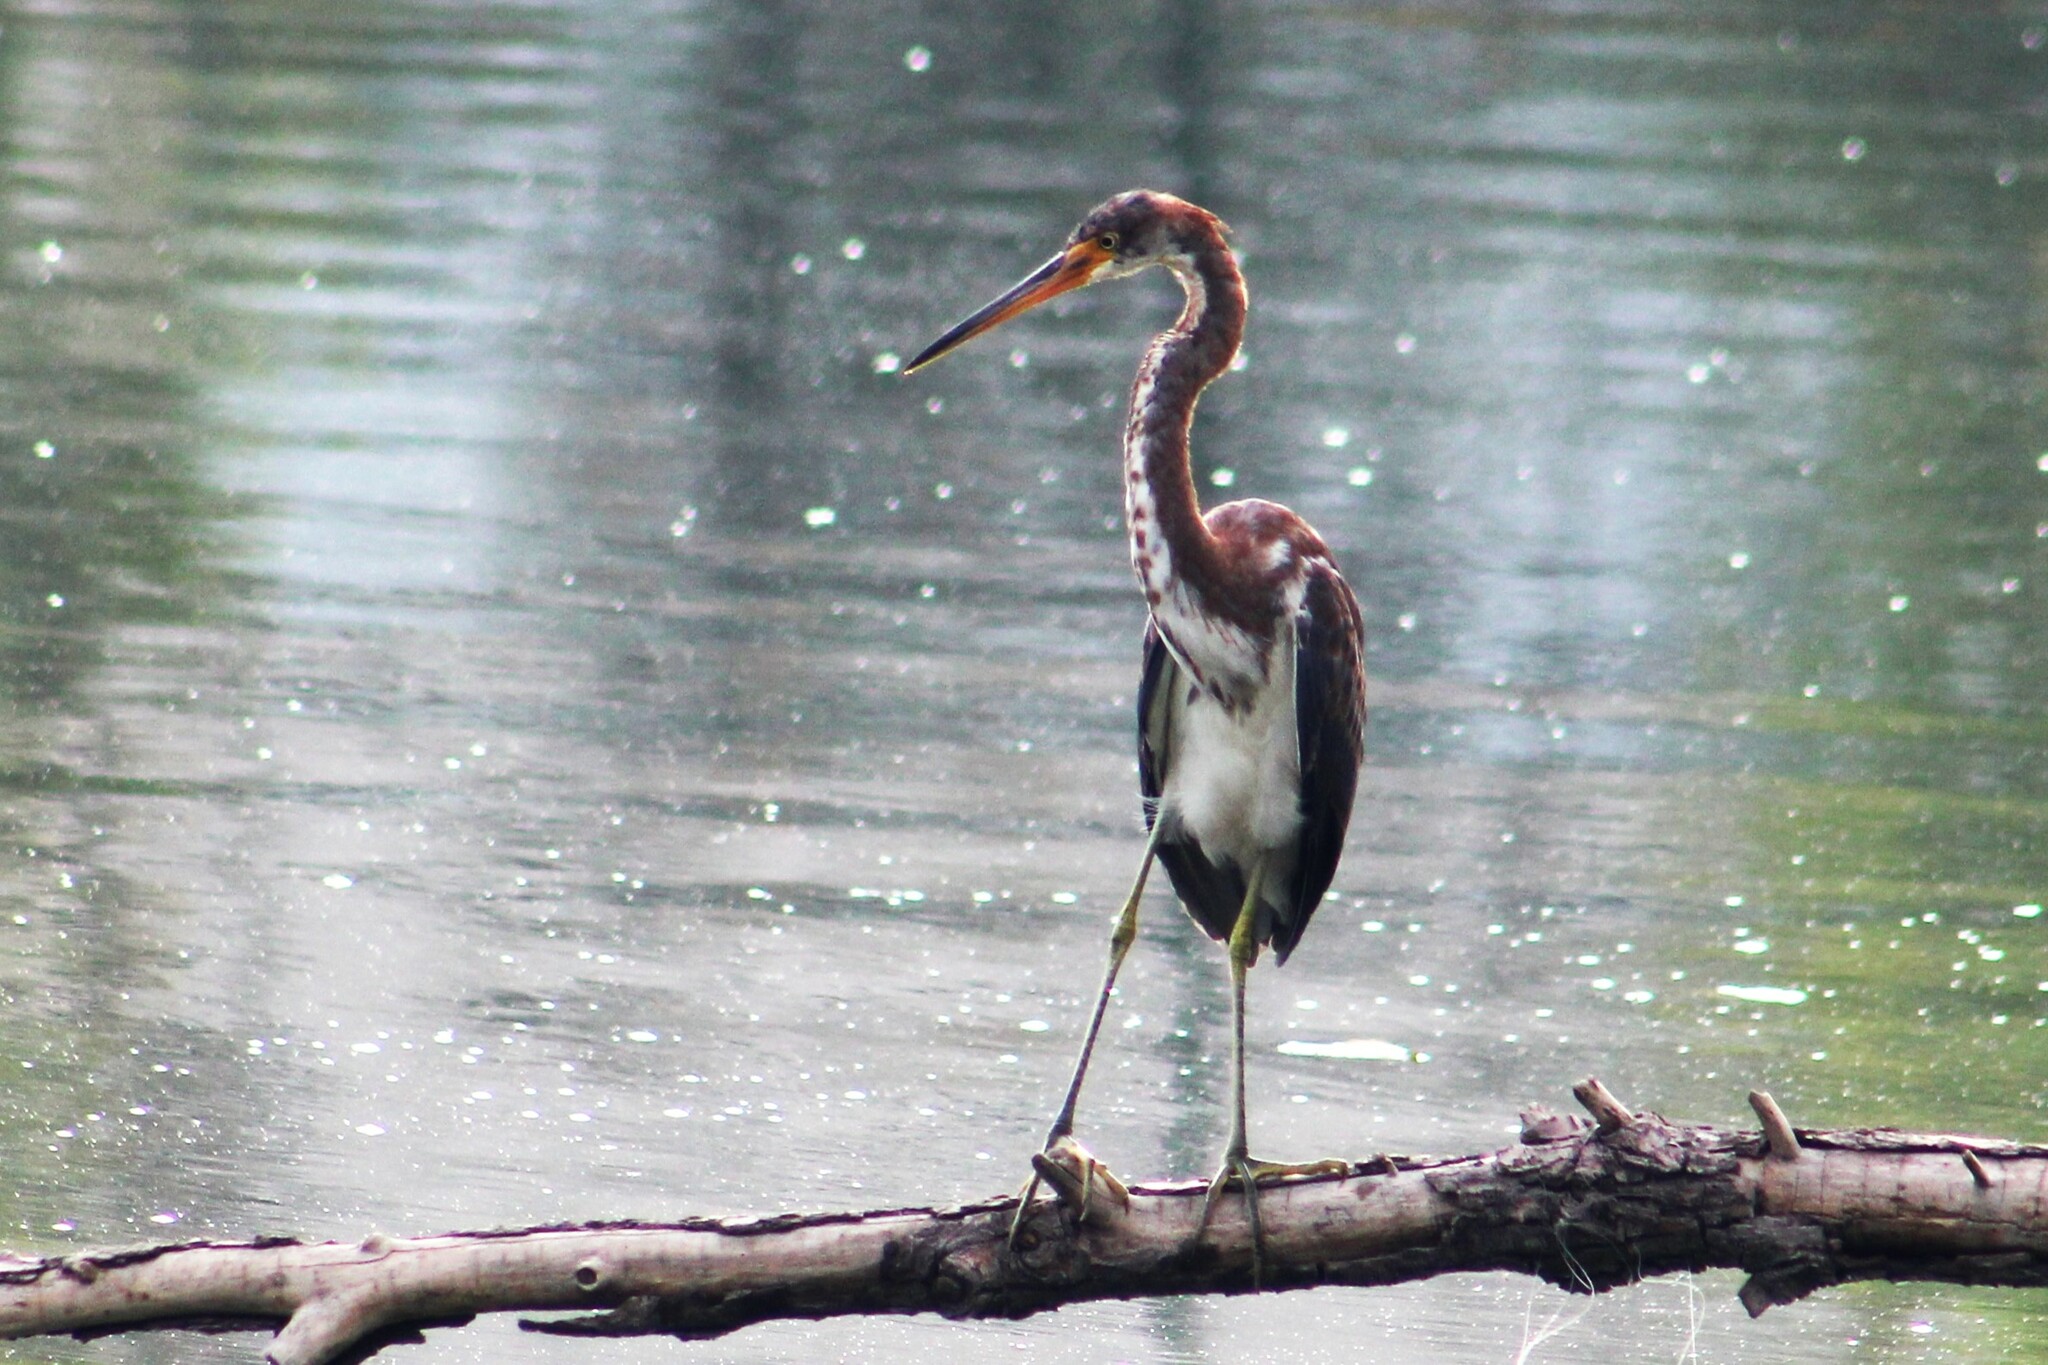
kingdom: Animalia
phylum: Chordata
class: Aves
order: Pelecaniformes
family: Ardeidae
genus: Egretta
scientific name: Egretta tricolor
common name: Tricolored heron
